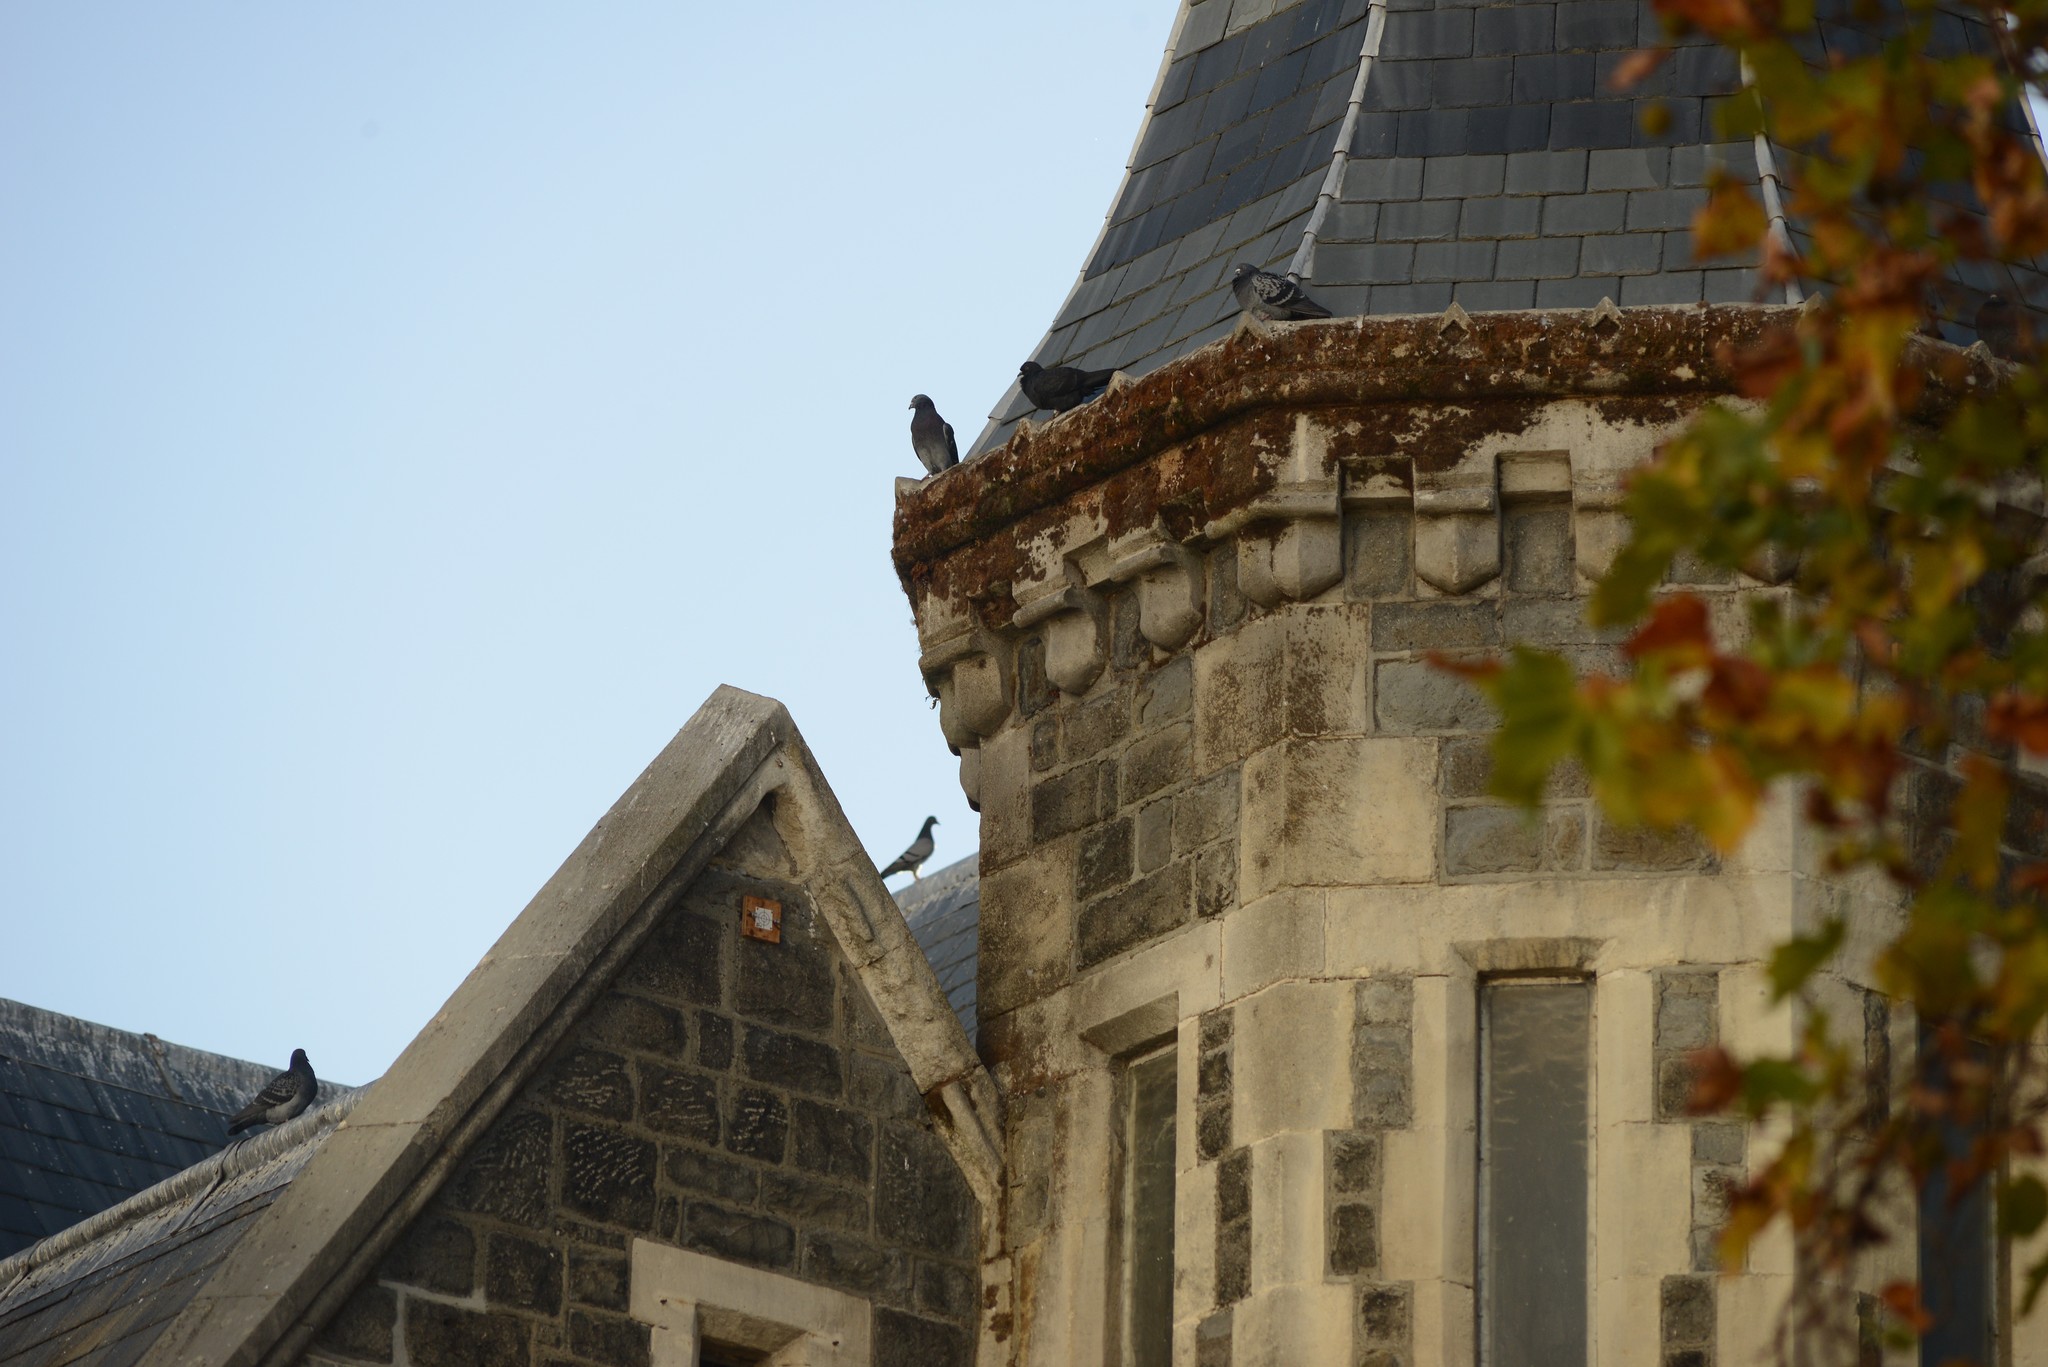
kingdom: Animalia
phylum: Chordata
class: Aves
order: Columbiformes
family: Columbidae
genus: Columba
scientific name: Columba livia
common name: Rock pigeon
